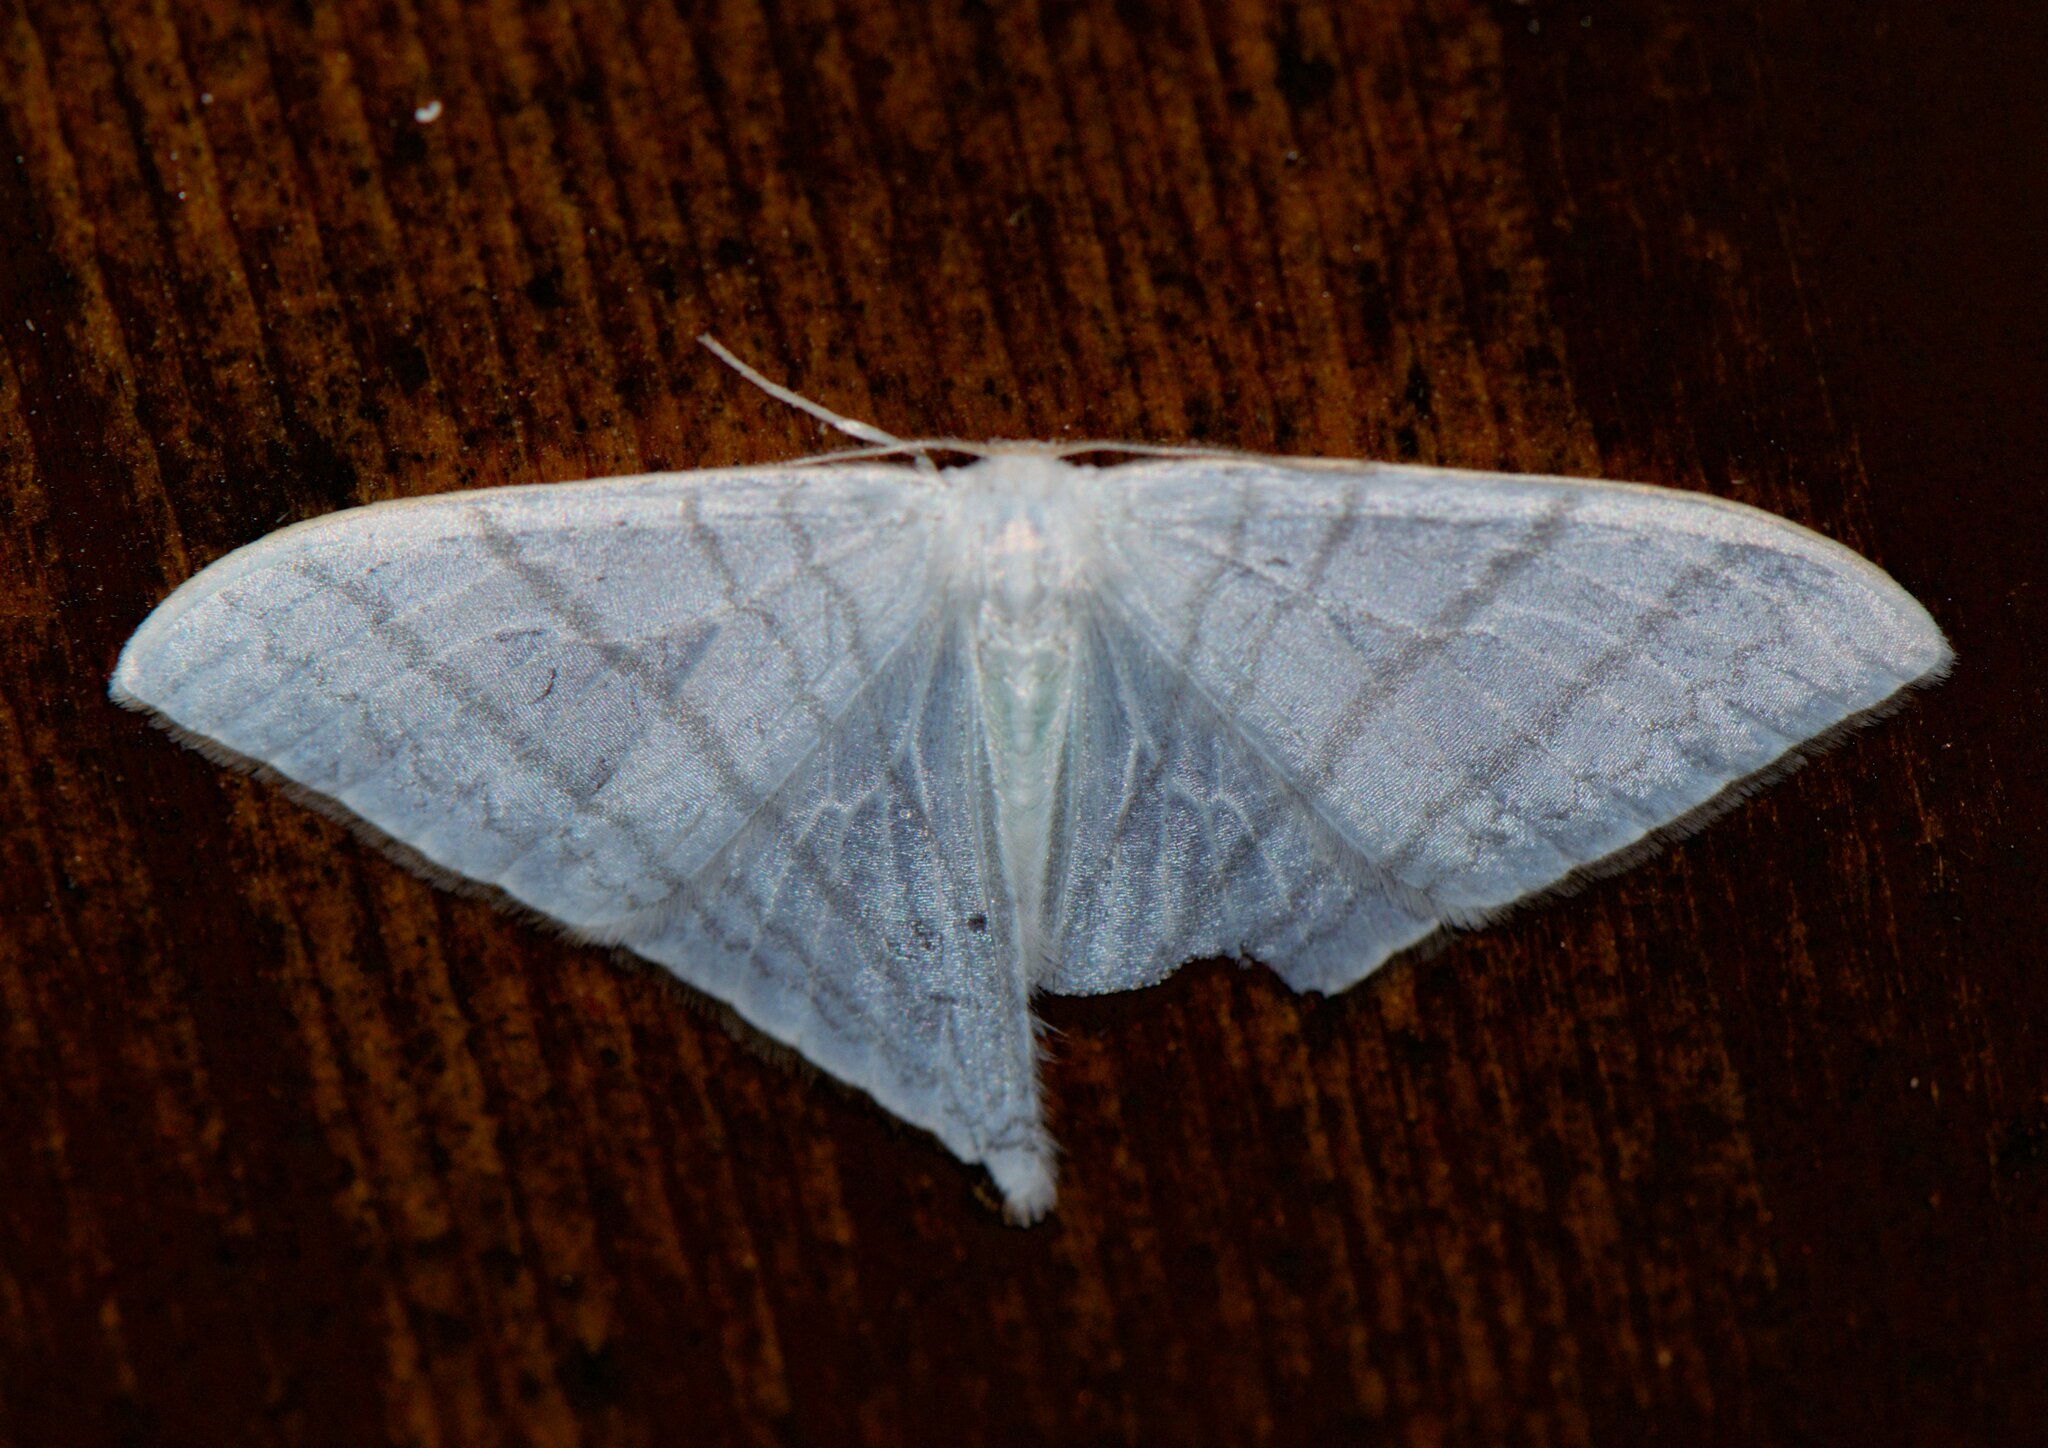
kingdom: Animalia
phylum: Arthropoda
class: Insecta
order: Lepidoptera
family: Drepanidae
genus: Ditrigona
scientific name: Ditrigona triangularia
